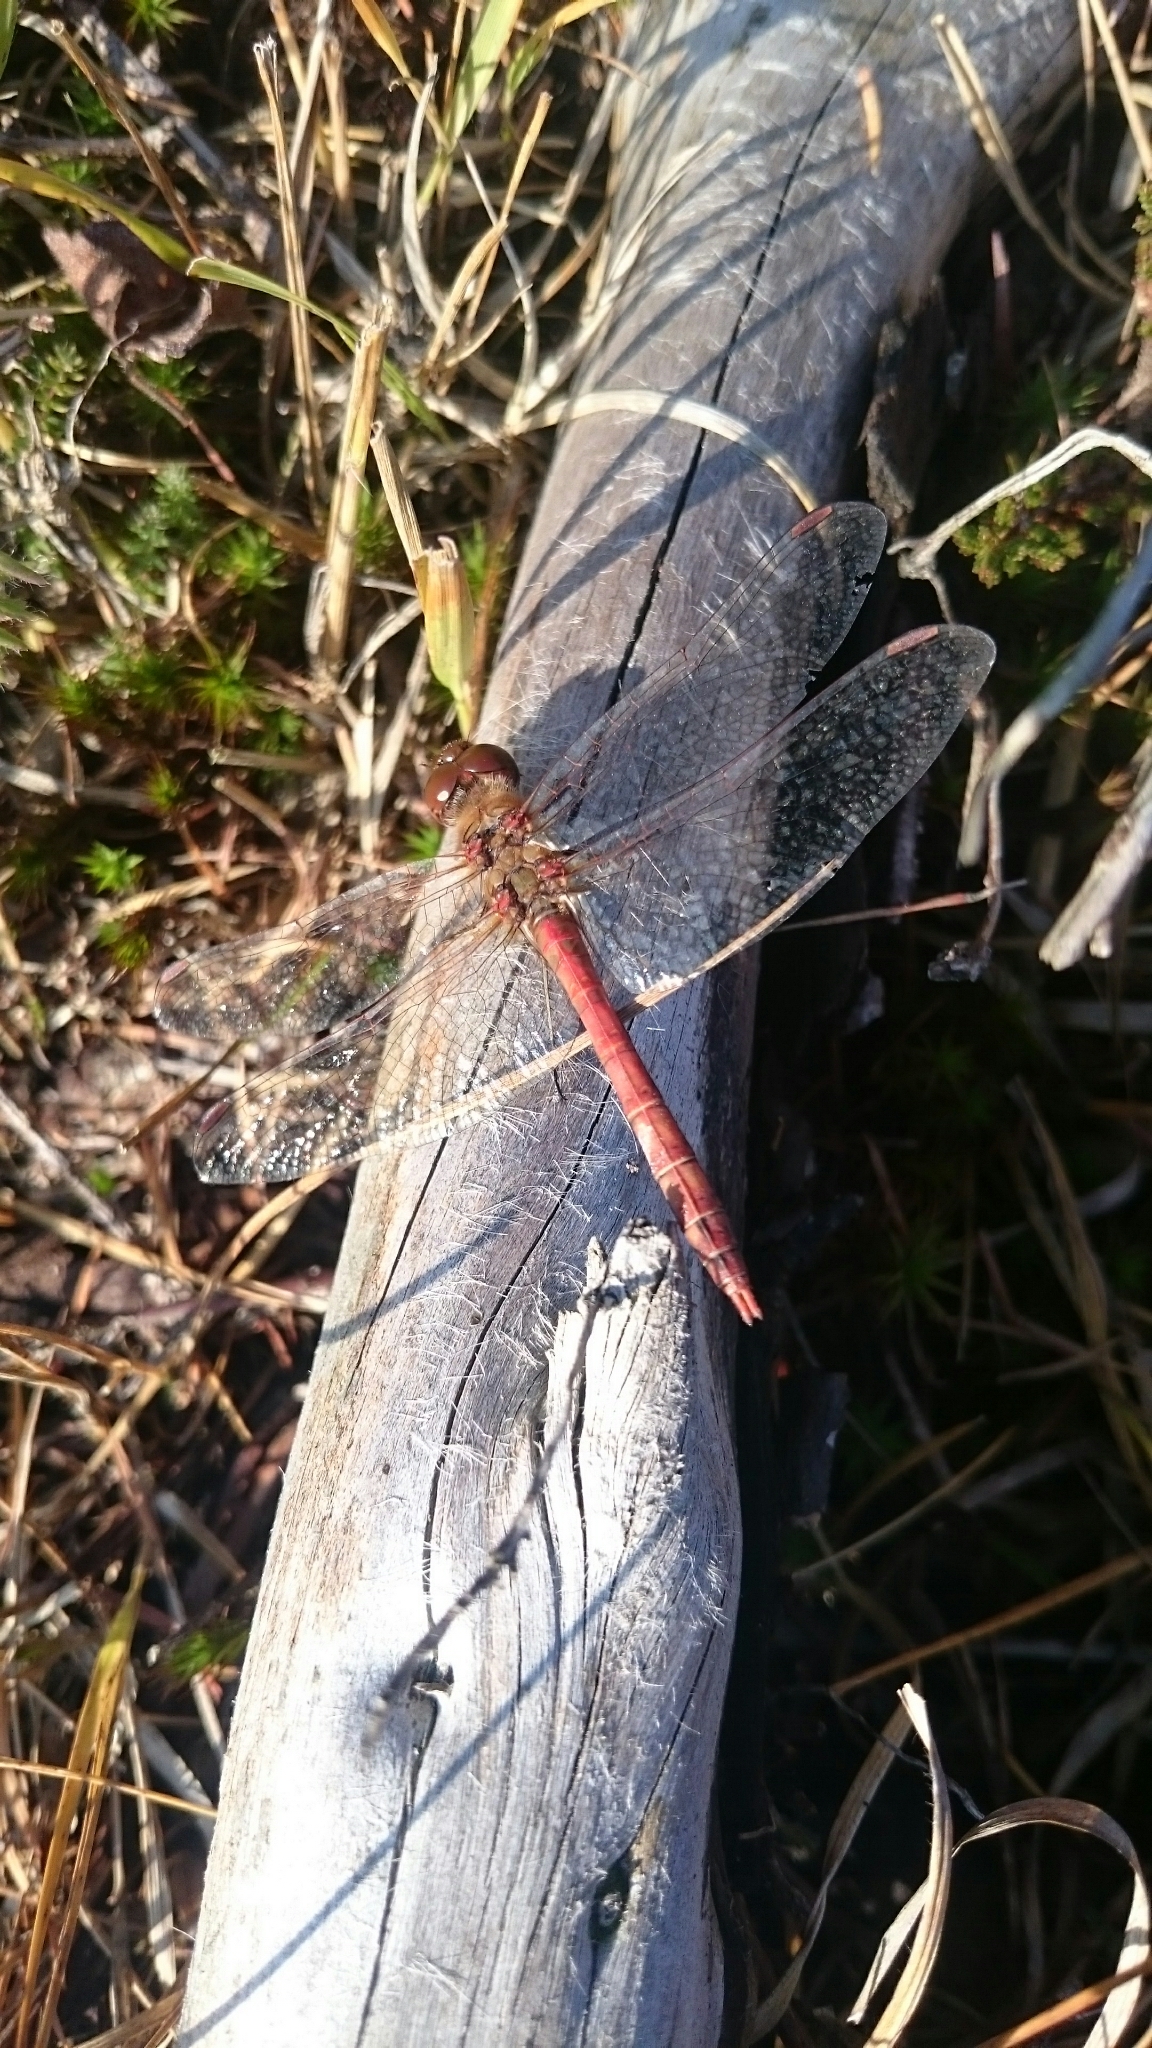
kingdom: Animalia
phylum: Arthropoda
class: Insecta
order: Odonata
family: Libellulidae
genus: Sympetrum
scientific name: Sympetrum striolatum
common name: Common darter
